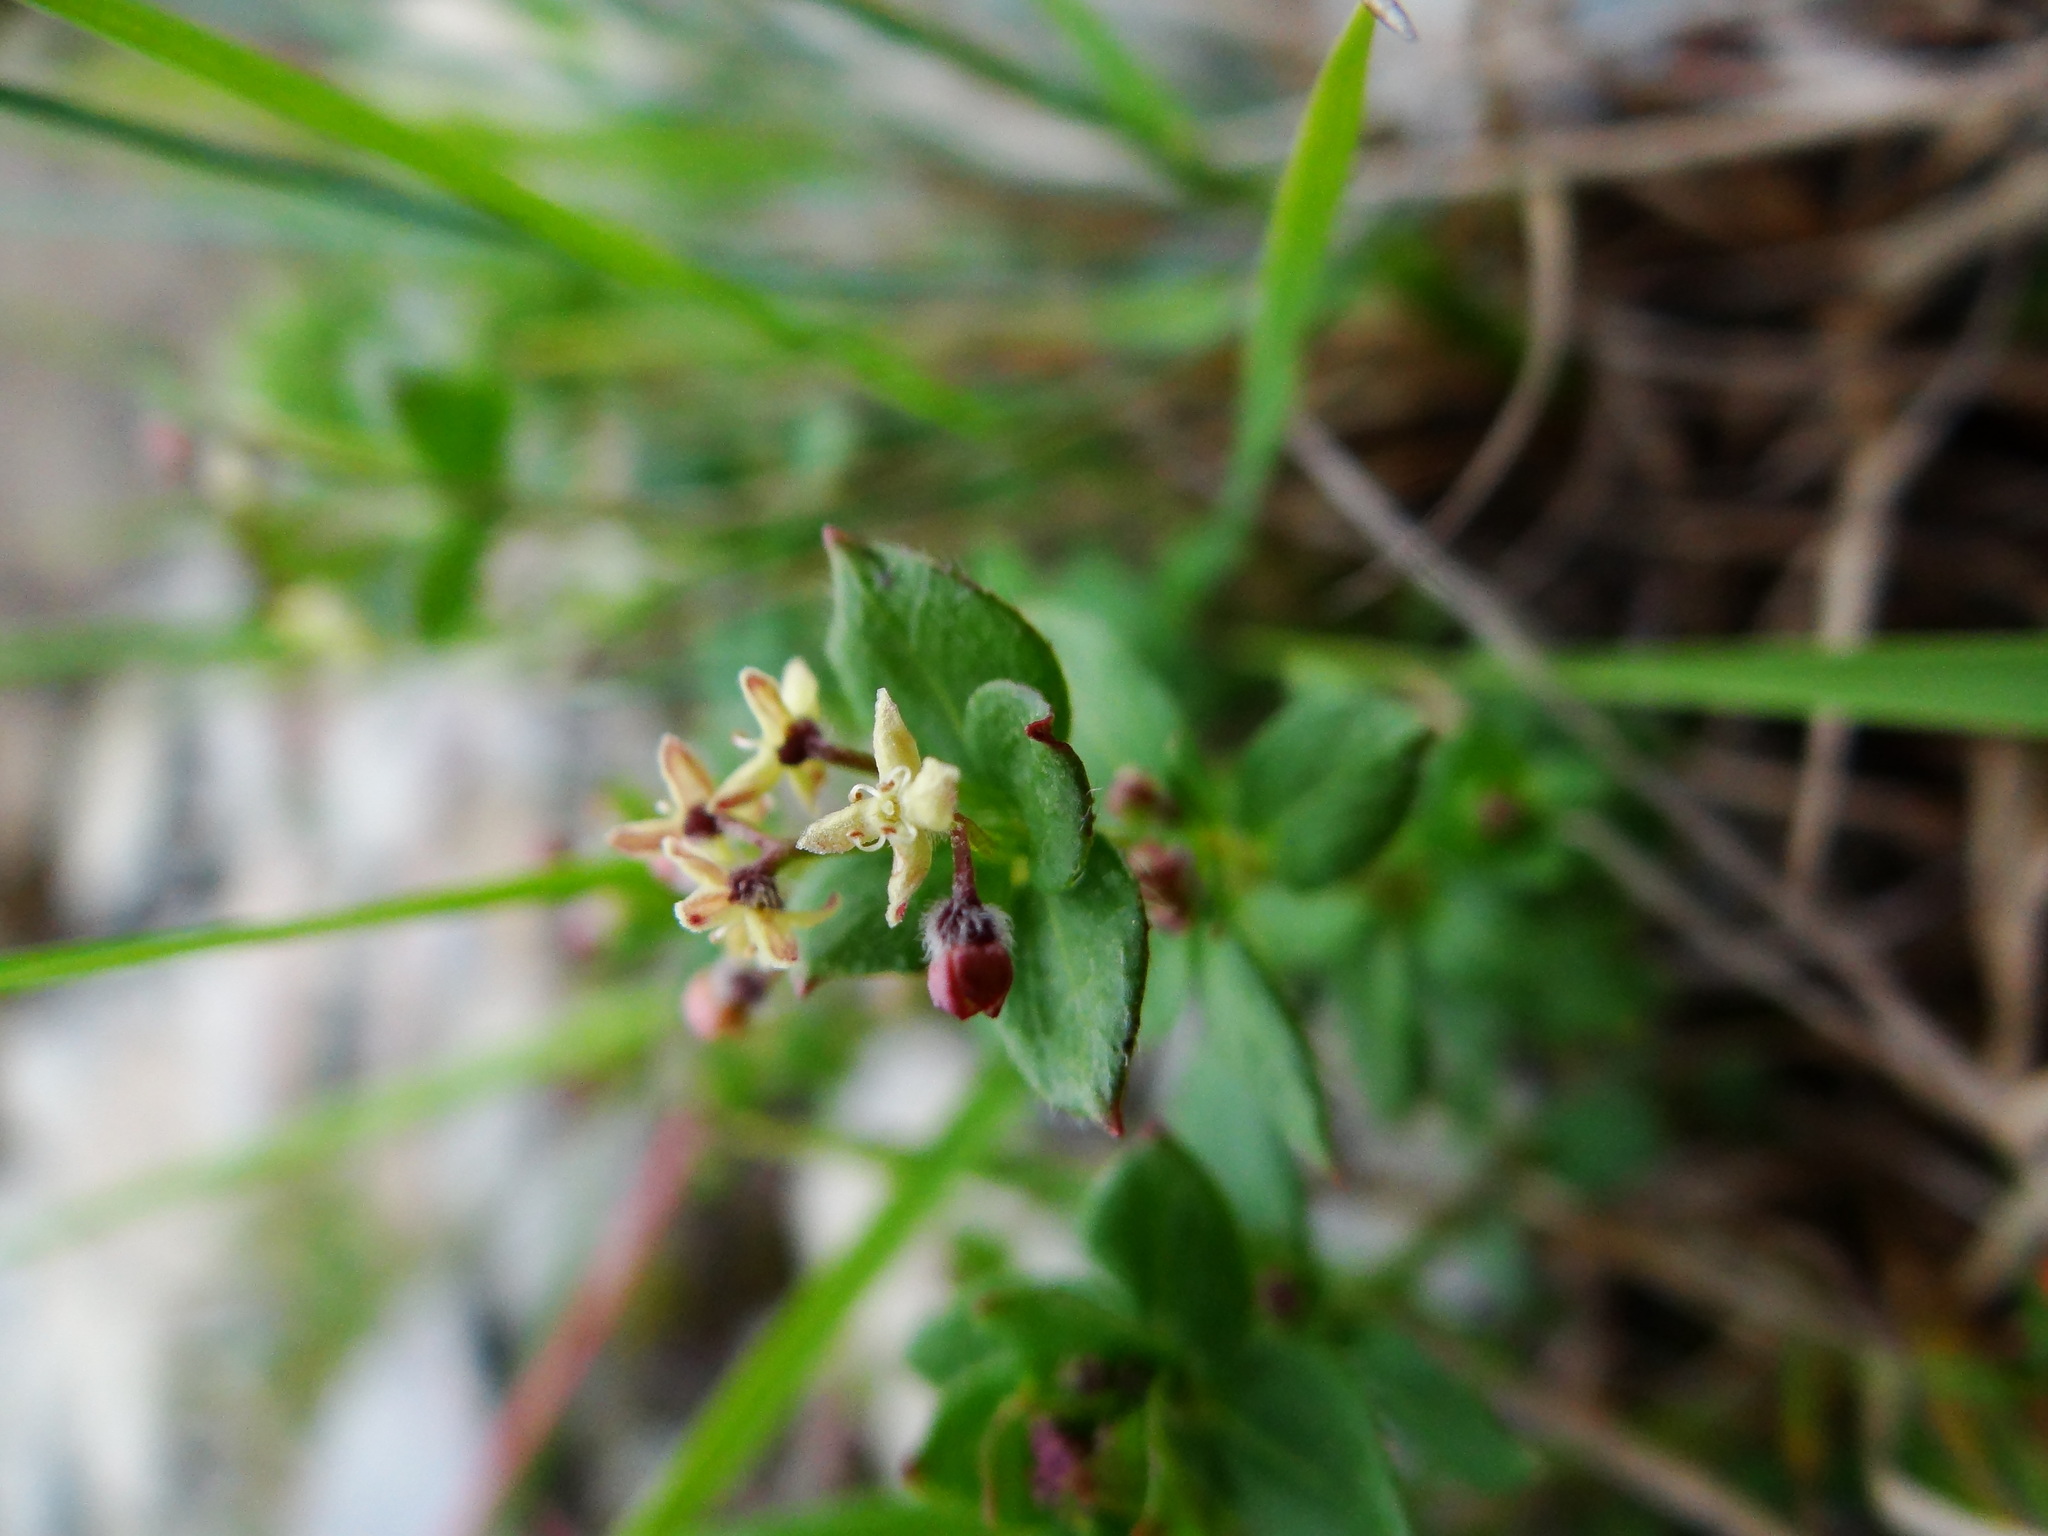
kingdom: Plantae
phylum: Tracheophyta
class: Magnoliopsida
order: Gentianales
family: Rubiaceae
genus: Galium
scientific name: Galium nankotaizanum
